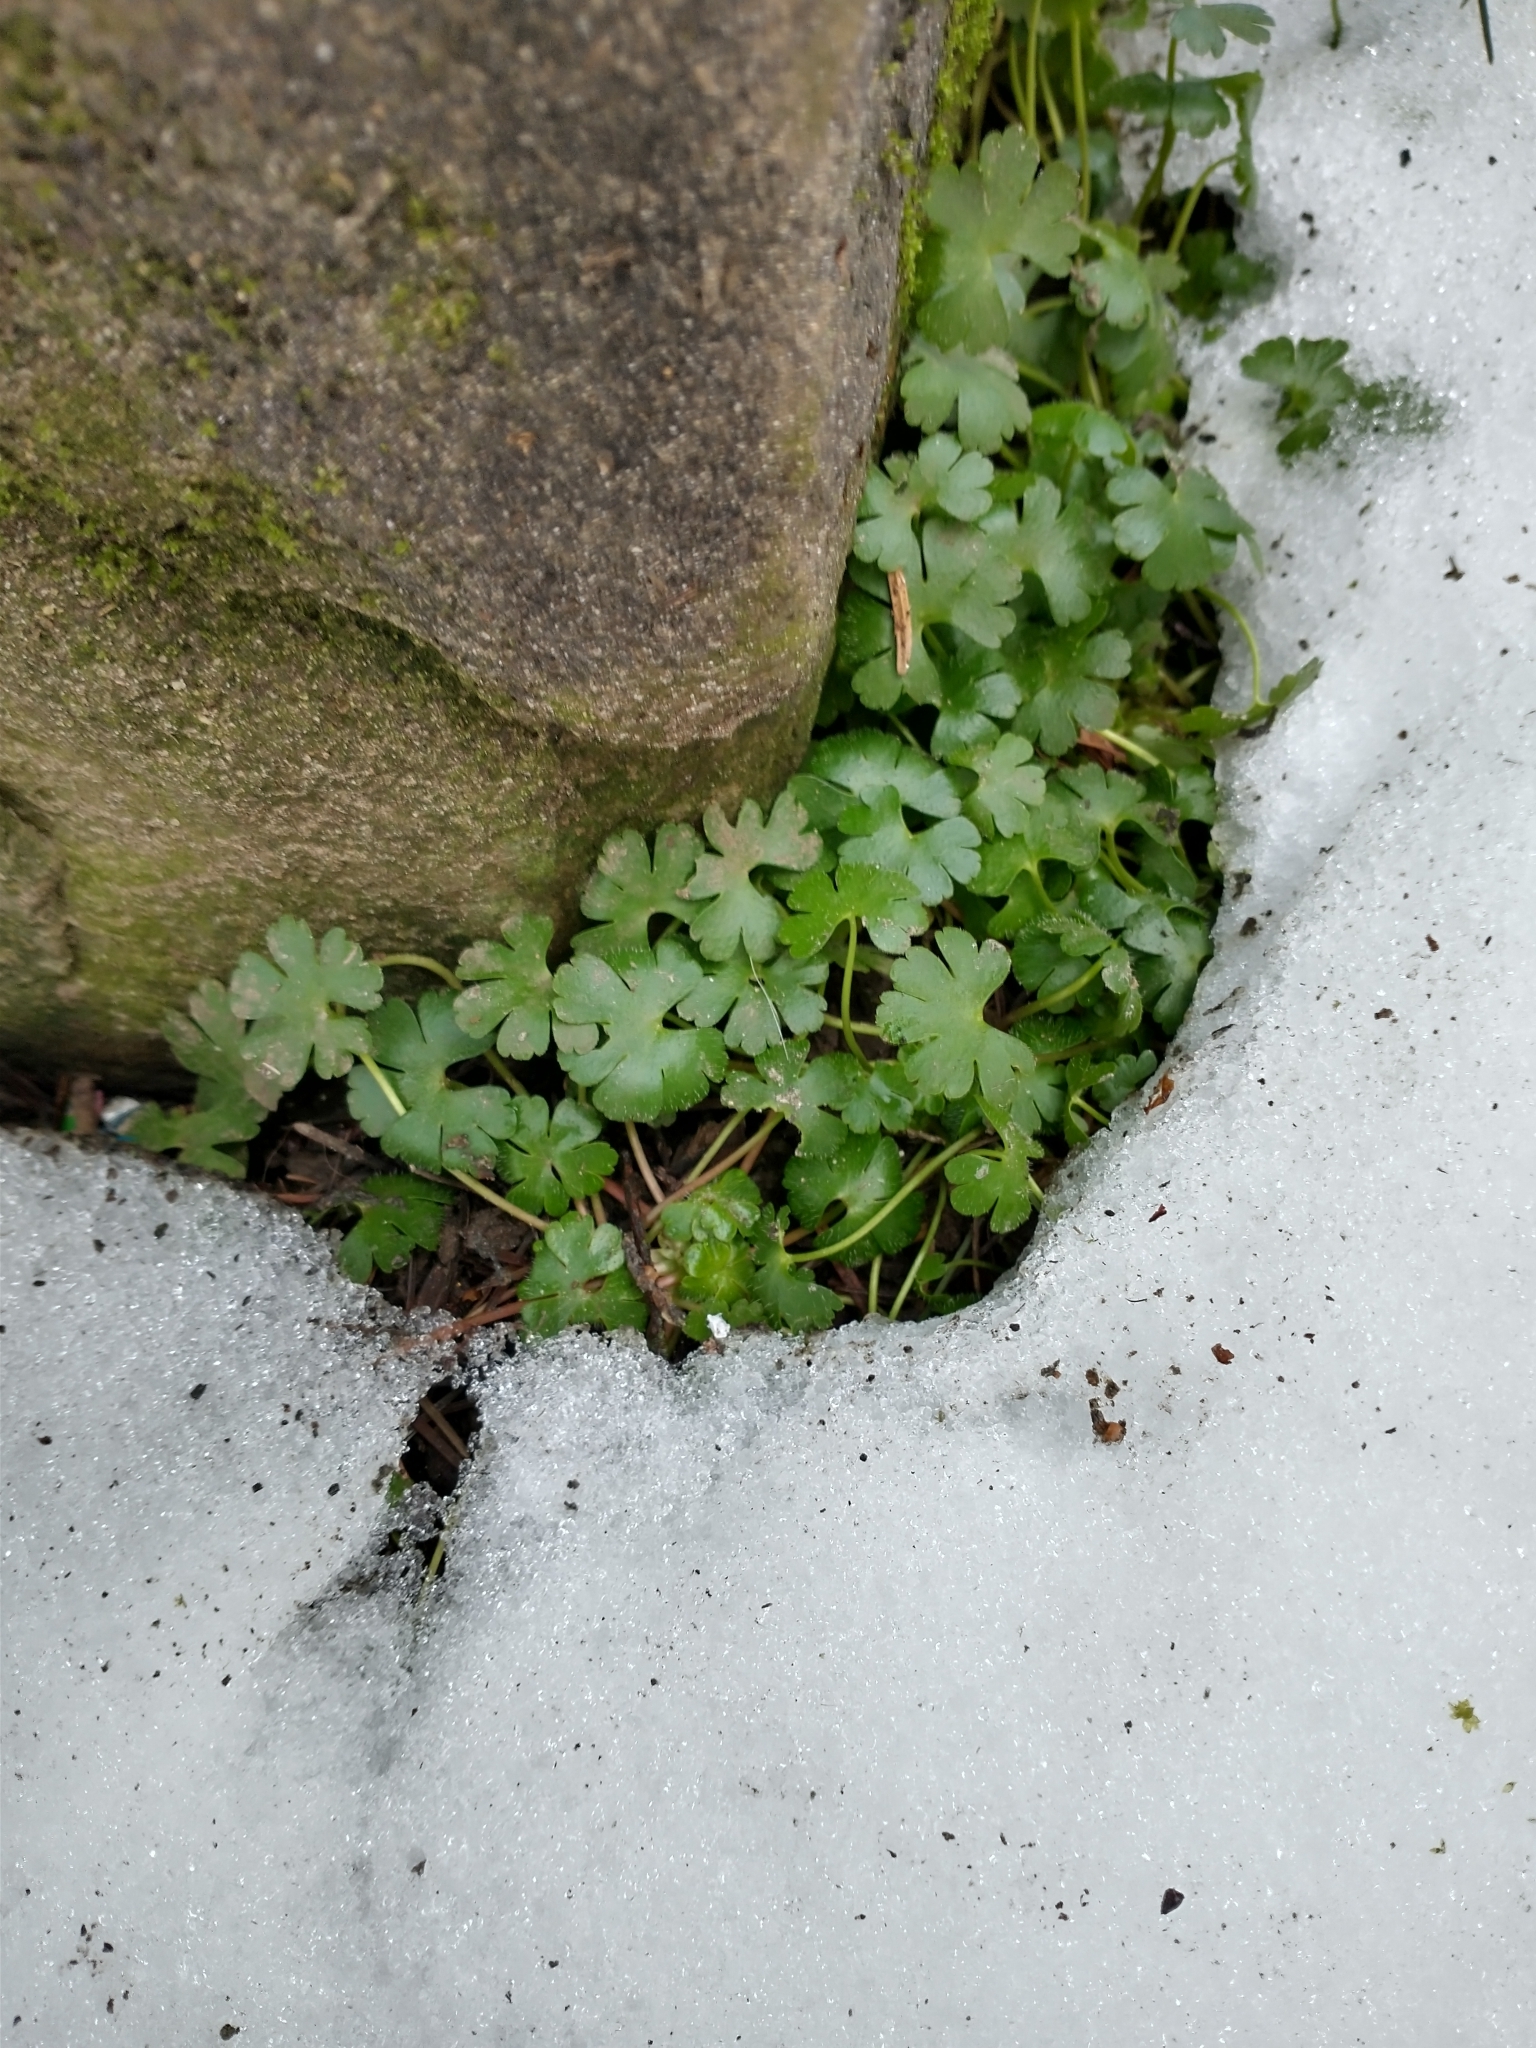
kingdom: Plantae
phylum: Tracheophyta
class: Magnoliopsida
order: Geraniales
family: Geraniaceae
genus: Geranium
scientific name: Geranium lucidum
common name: Shining crane's-bill
